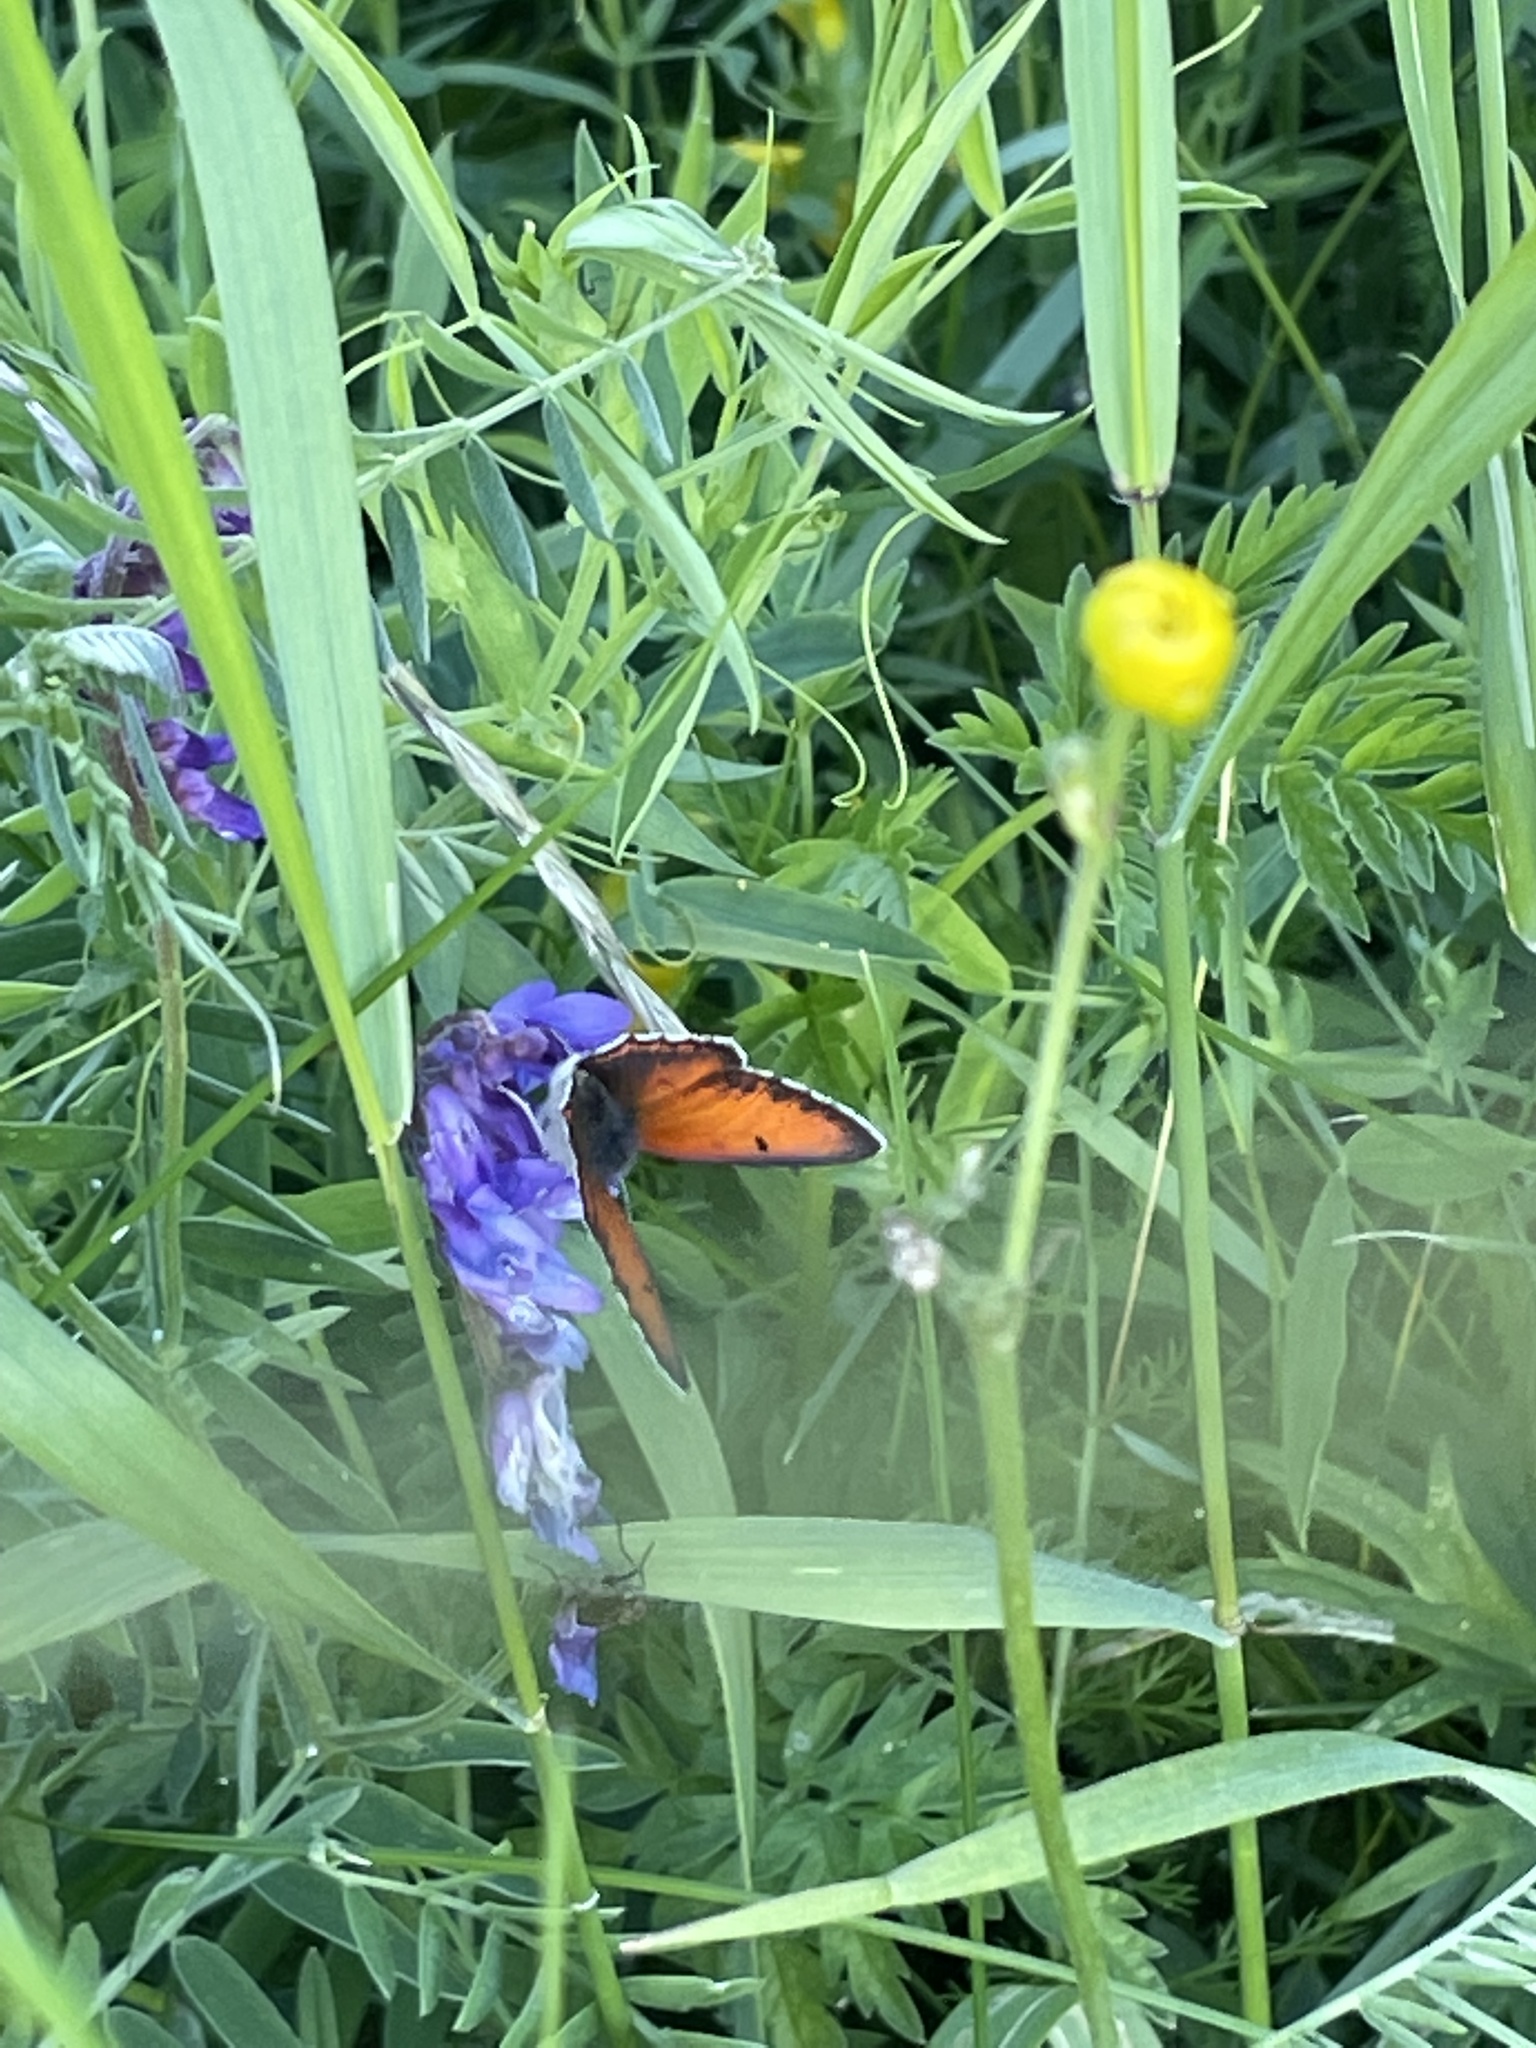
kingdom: Animalia
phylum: Arthropoda
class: Insecta
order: Lepidoptera
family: Lycaenidae
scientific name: Lycaenidae
